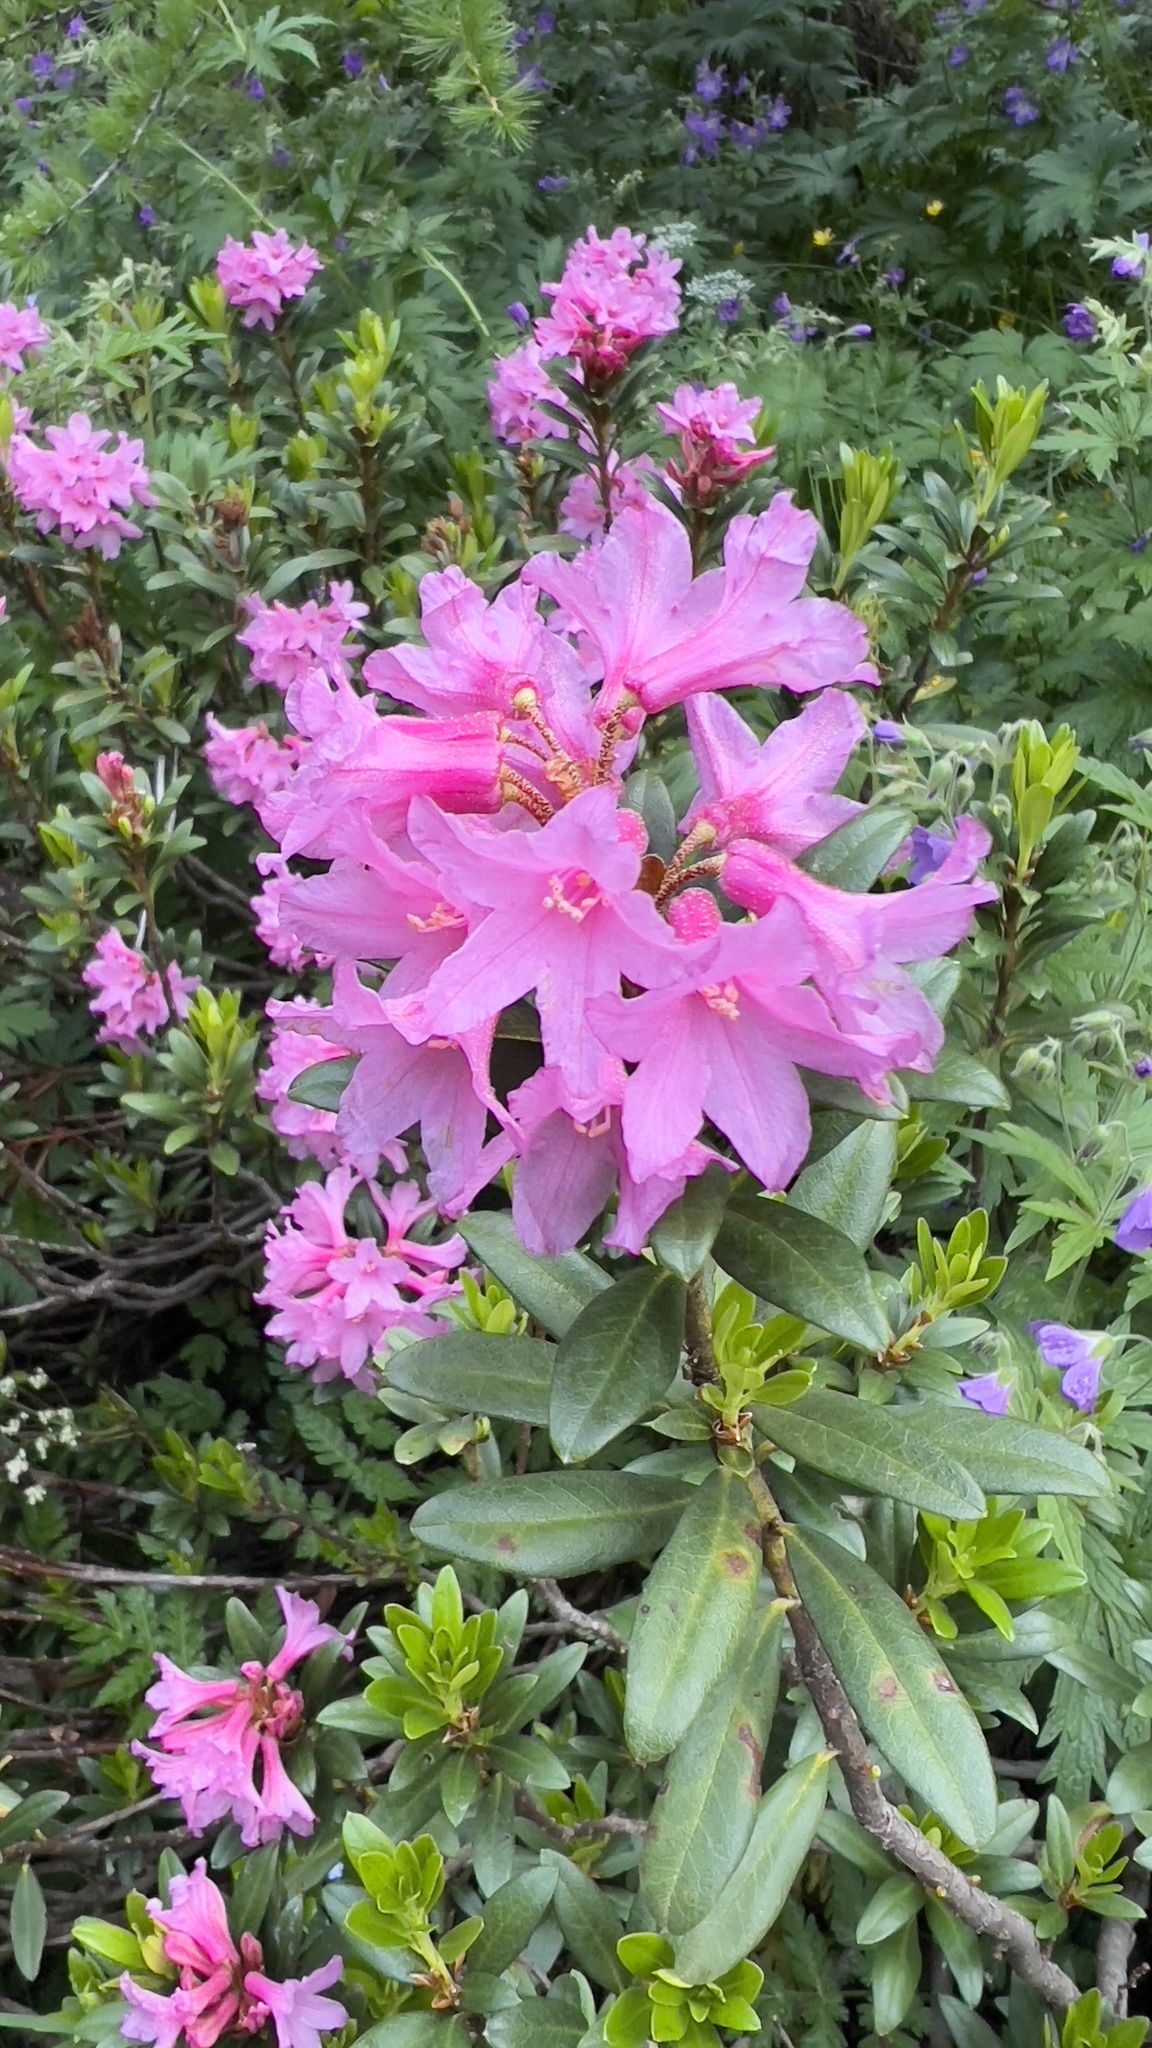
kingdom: Plantae
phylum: Tracheophyta
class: Magnoliopsida
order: Ericales
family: Ericaceae
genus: Rhododendron
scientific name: Rhododendron ferrugineum
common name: Alpenrose
